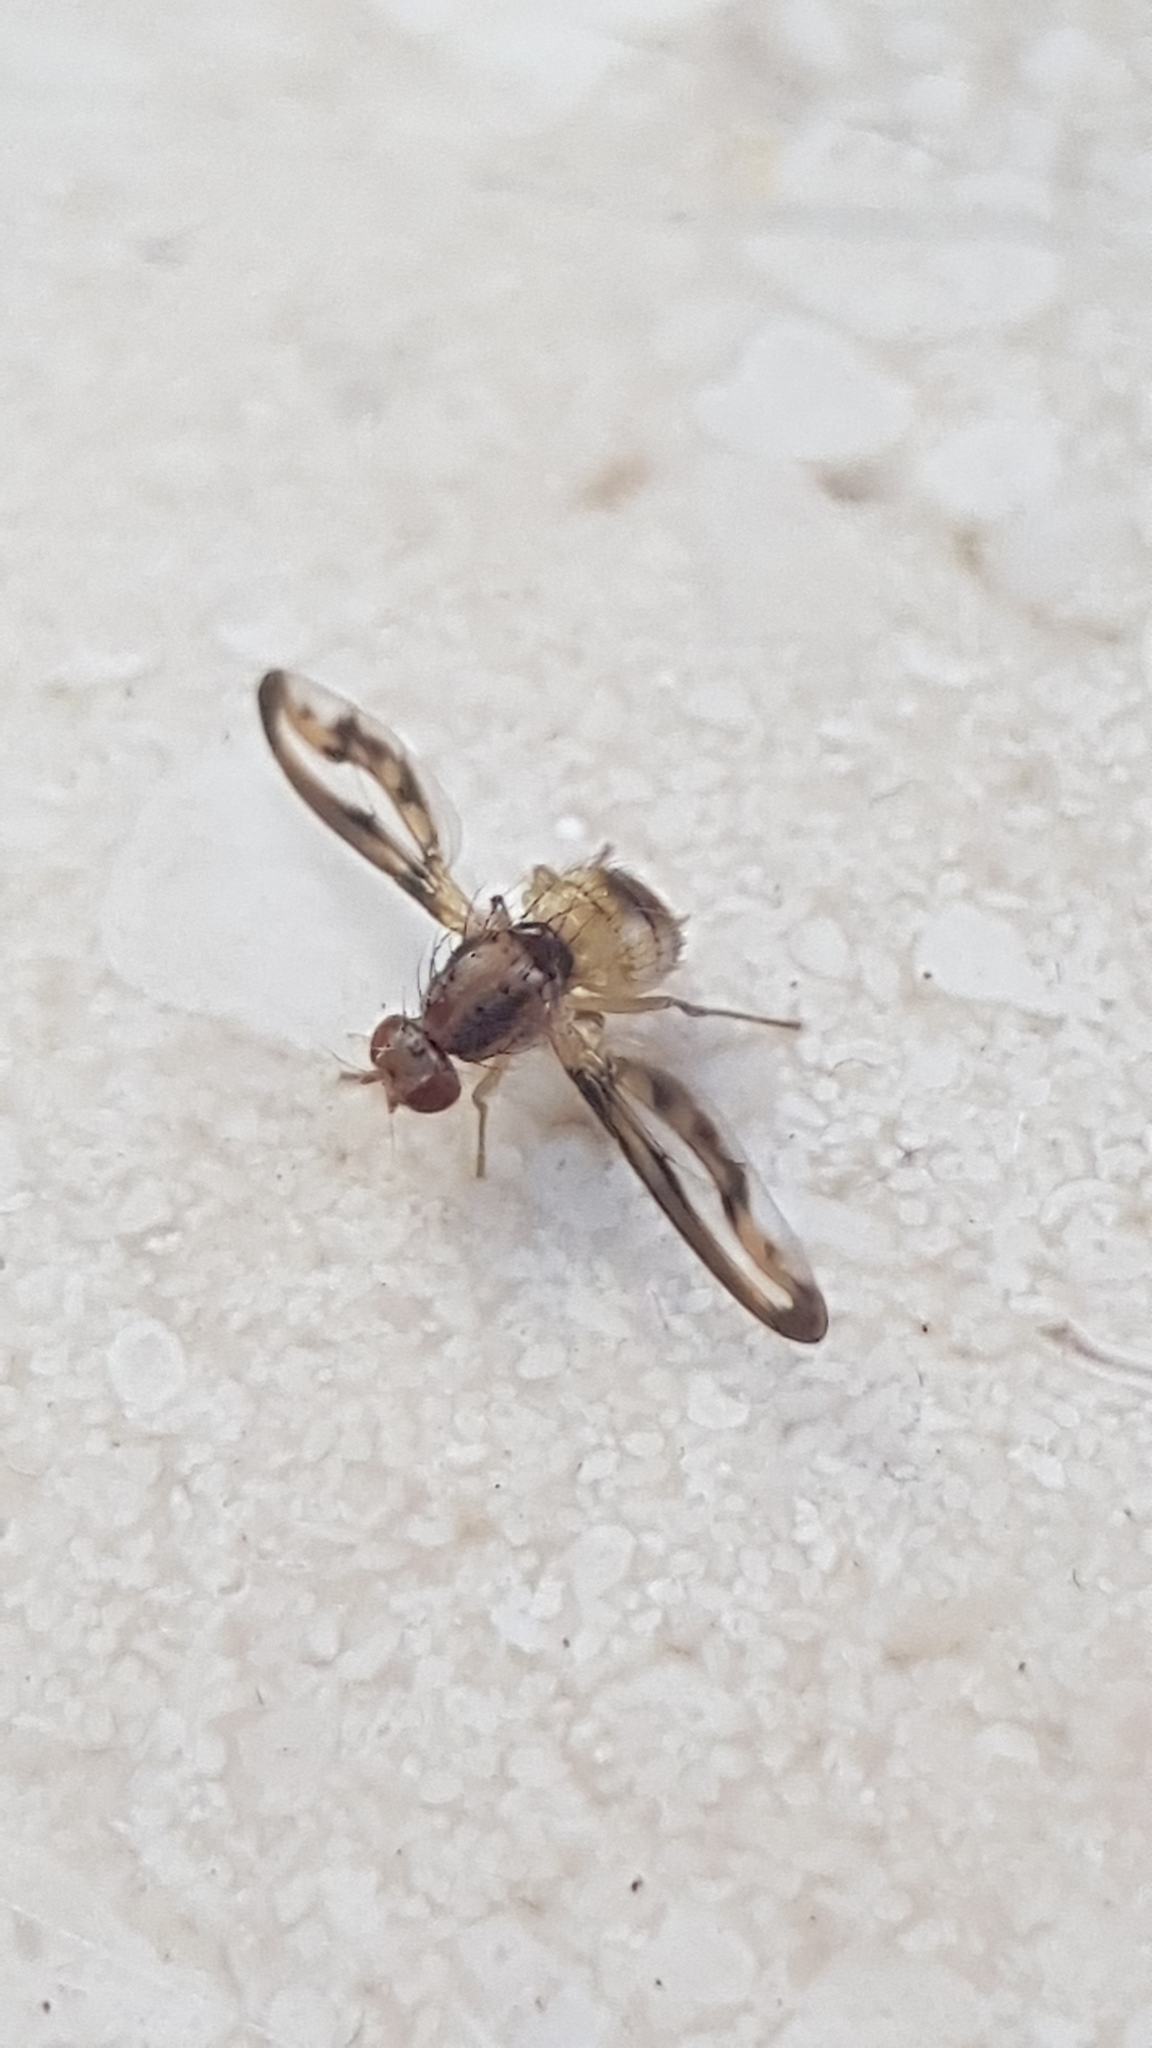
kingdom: Animalia
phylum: Arthropoda
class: Insecta
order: Diptera
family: Pallopteridae
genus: Toxonevra
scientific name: Toxonevra muliebris
